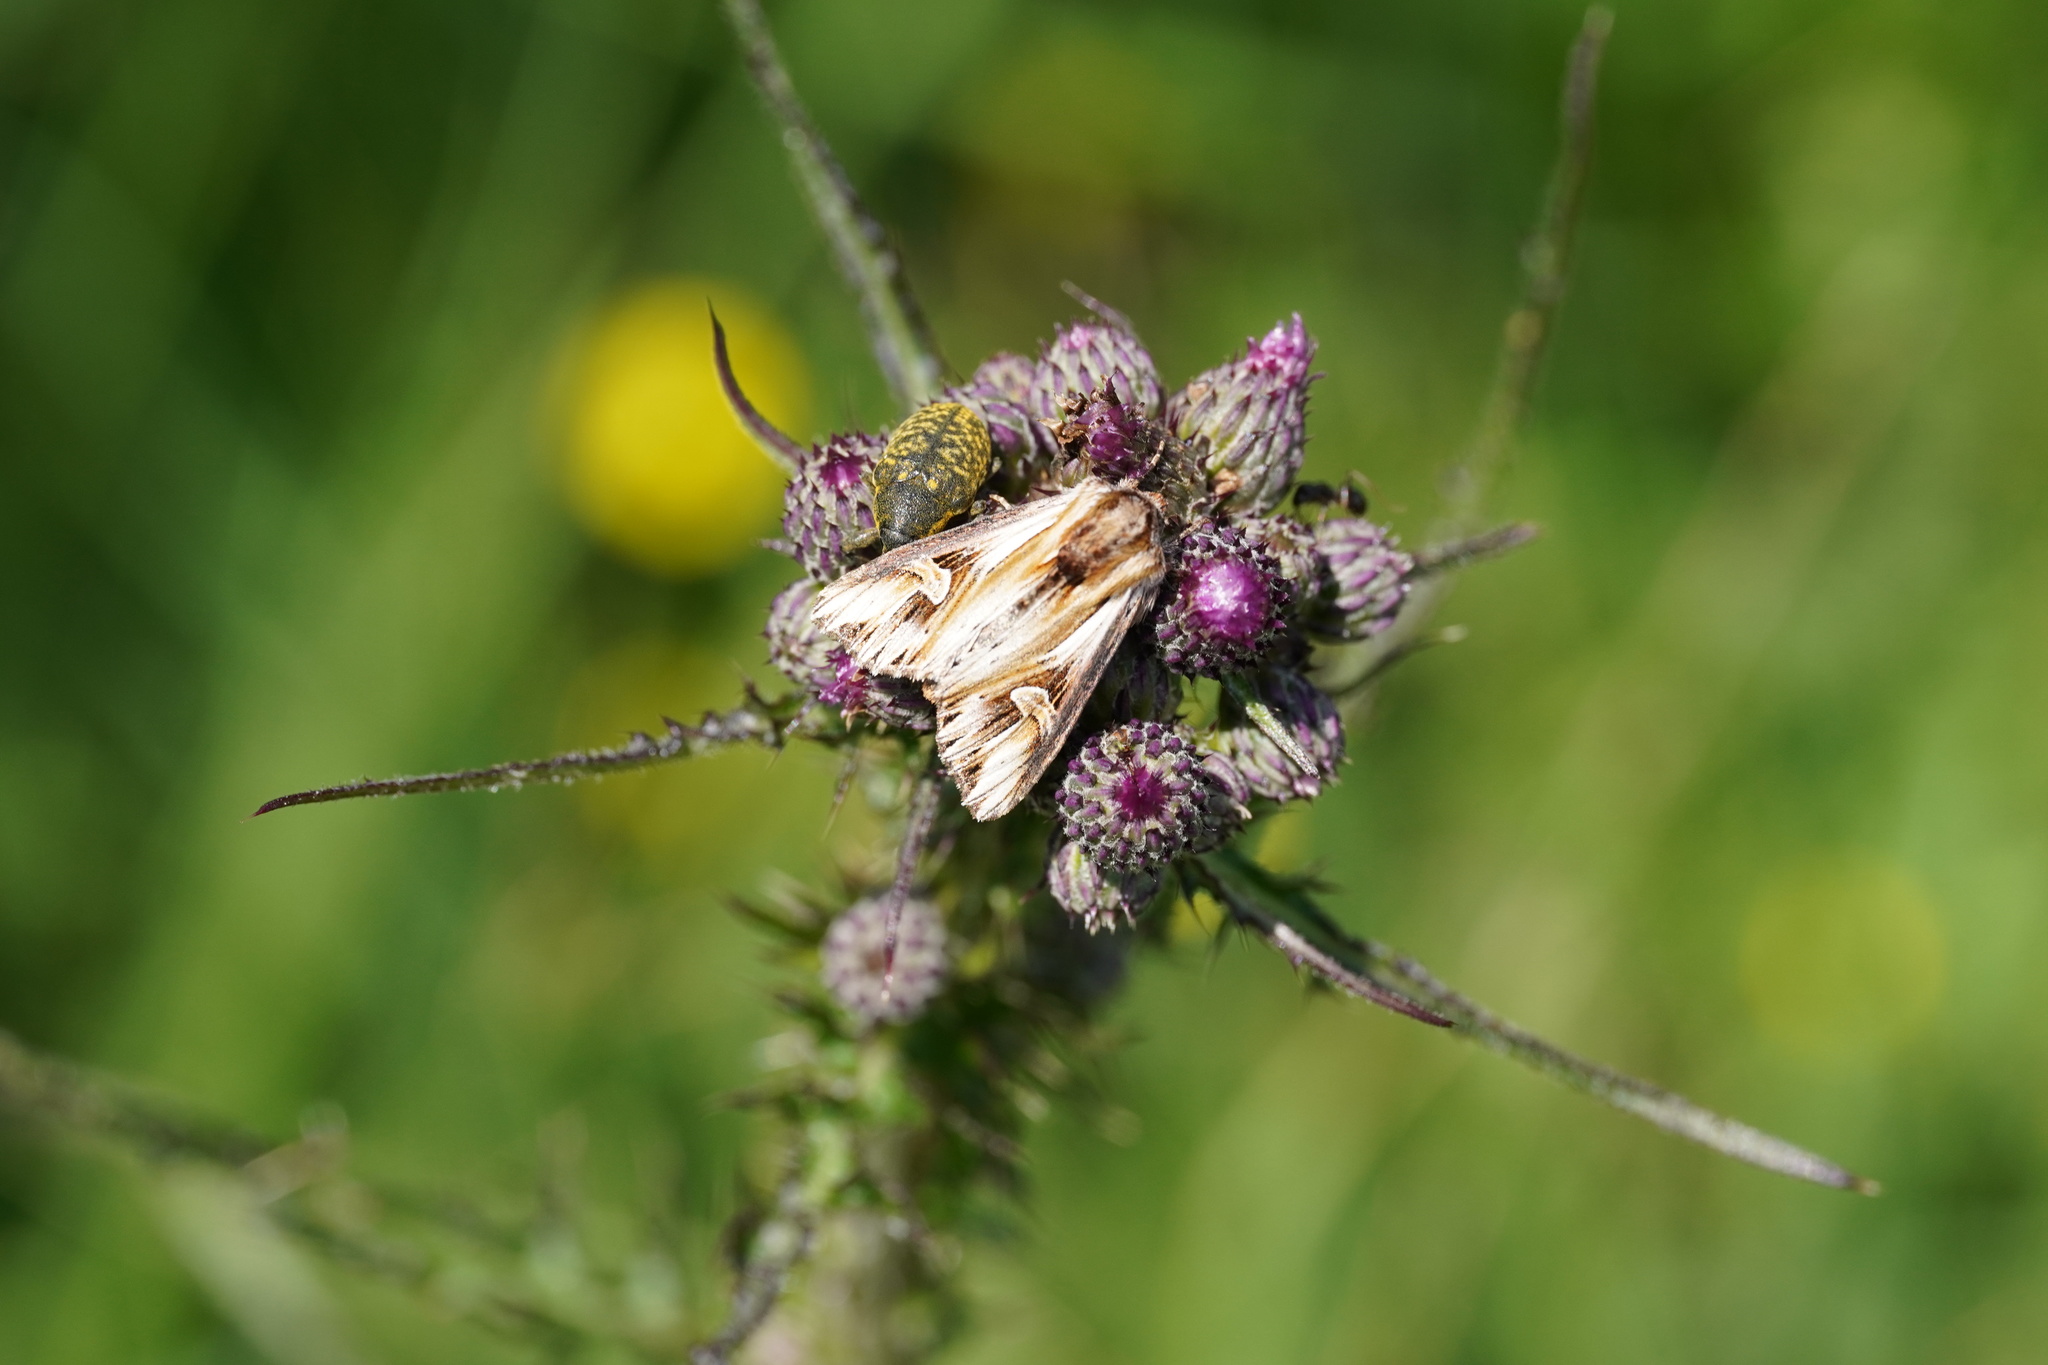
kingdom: Animalia
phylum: Arthropoda
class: Insecta
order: Lepidoptera
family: Noctuidae
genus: Actinotia
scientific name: Actinotia polyodon
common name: Purple cloud
